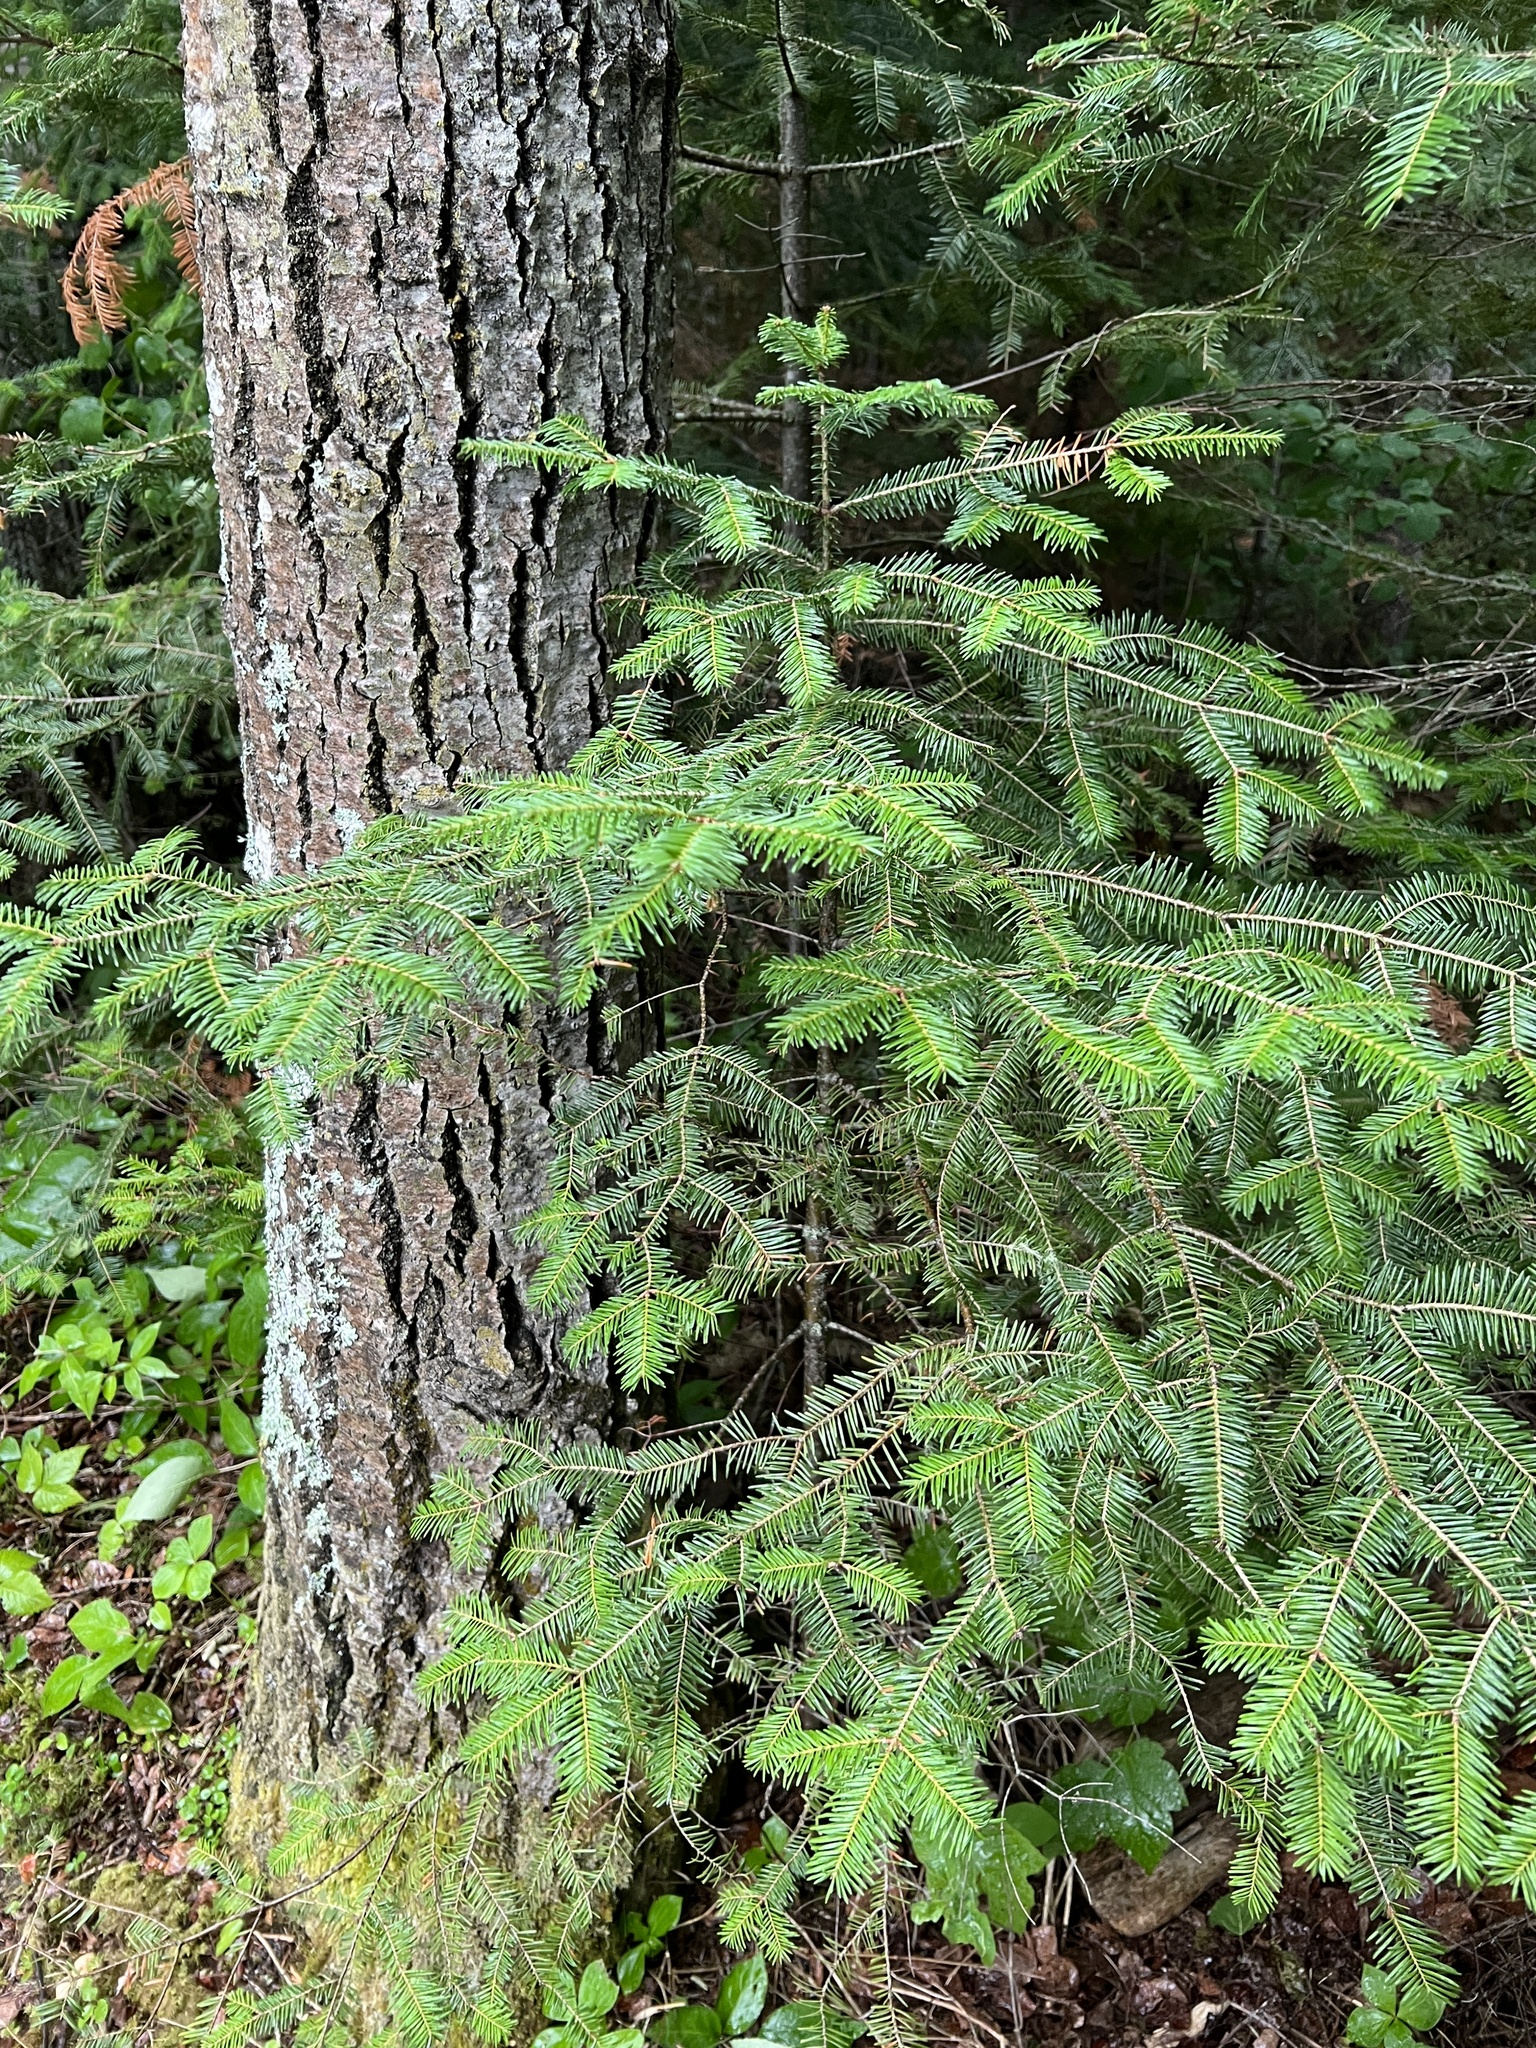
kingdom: Plantae
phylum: Tracheophyta
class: Pinopsida
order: Pinales
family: Pinaceae
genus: Abies
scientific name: Abies balsamea
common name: Balsam fir
